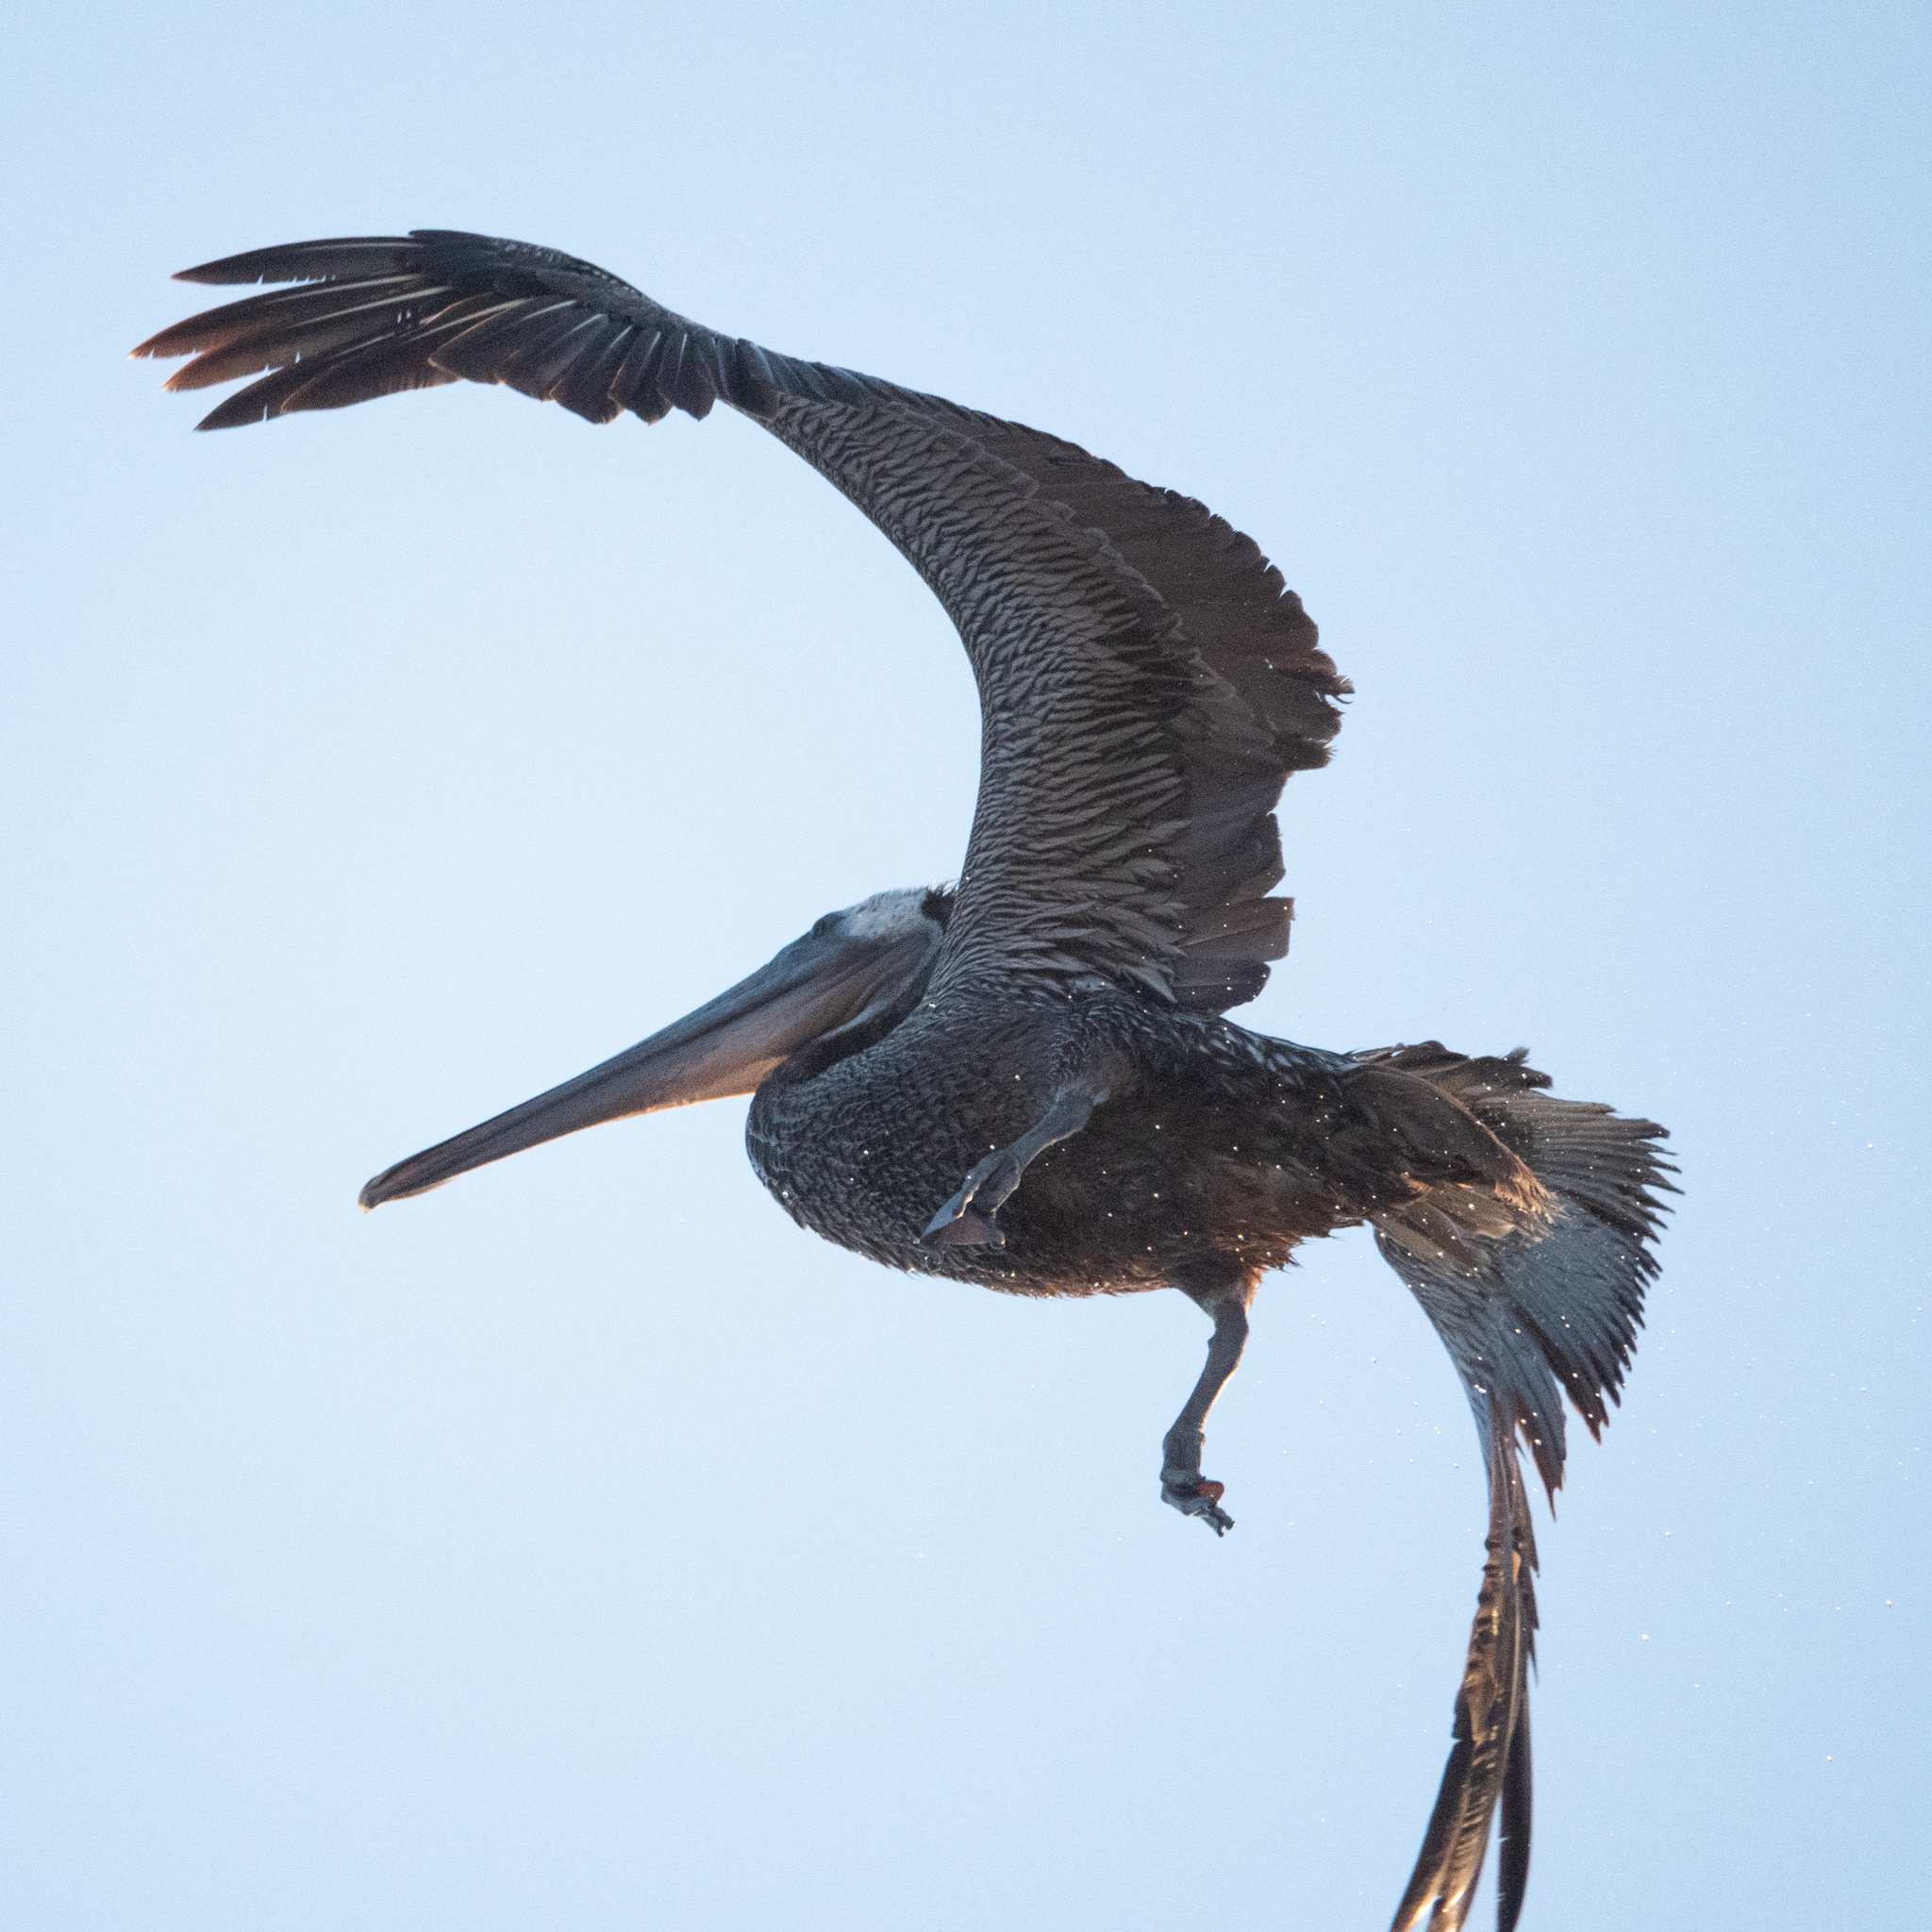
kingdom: Animalia
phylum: Chordata
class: Aves
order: Pelecaniformes
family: Pelecanidae
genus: Pelecanus
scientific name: Pelecanus occidentalis
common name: Brown pelican
